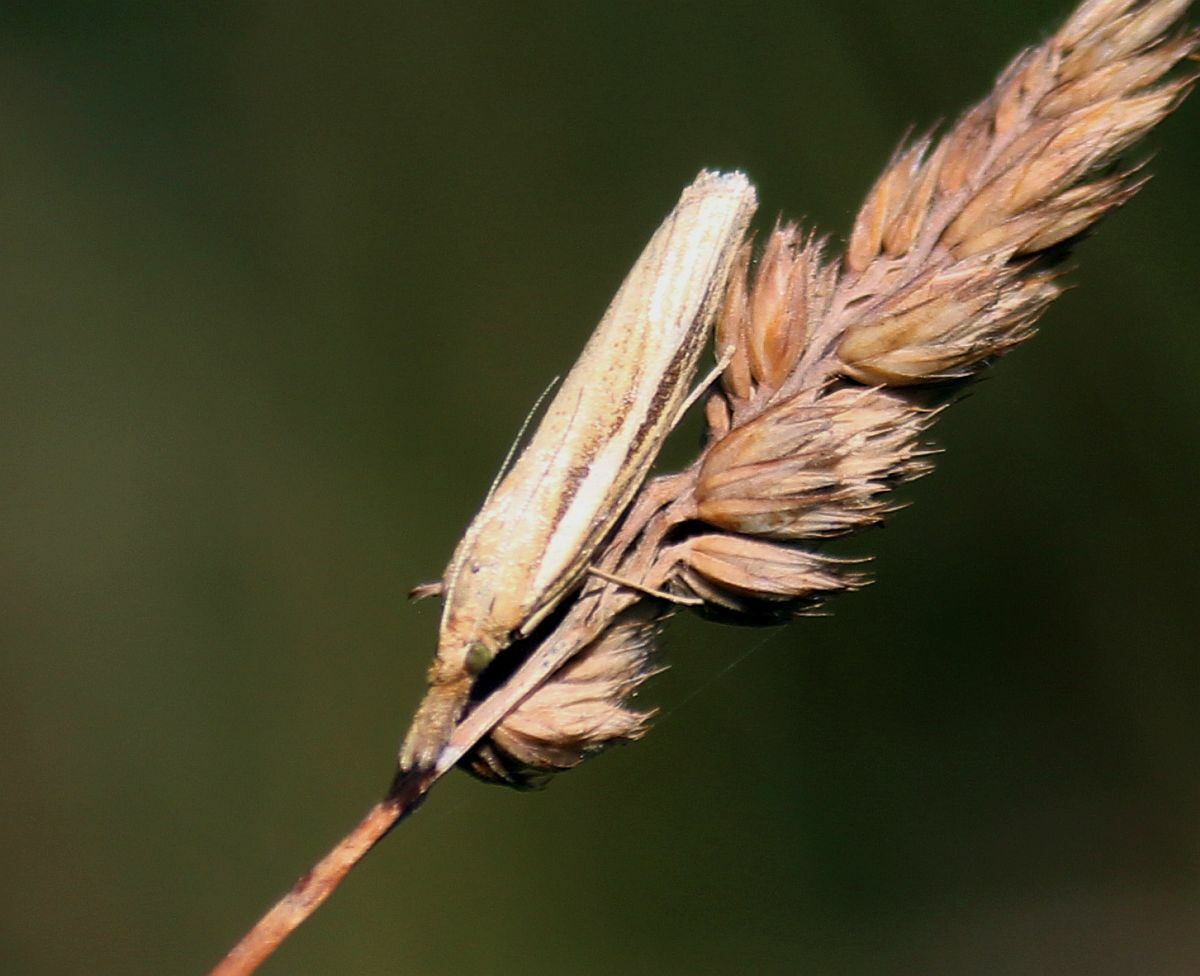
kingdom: Animalia
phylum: Arthropoda
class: Insecta
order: Lepidoptera
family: Crambidae
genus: Agriphila
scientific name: Agriphila tristellus
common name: Common grass-veneer
